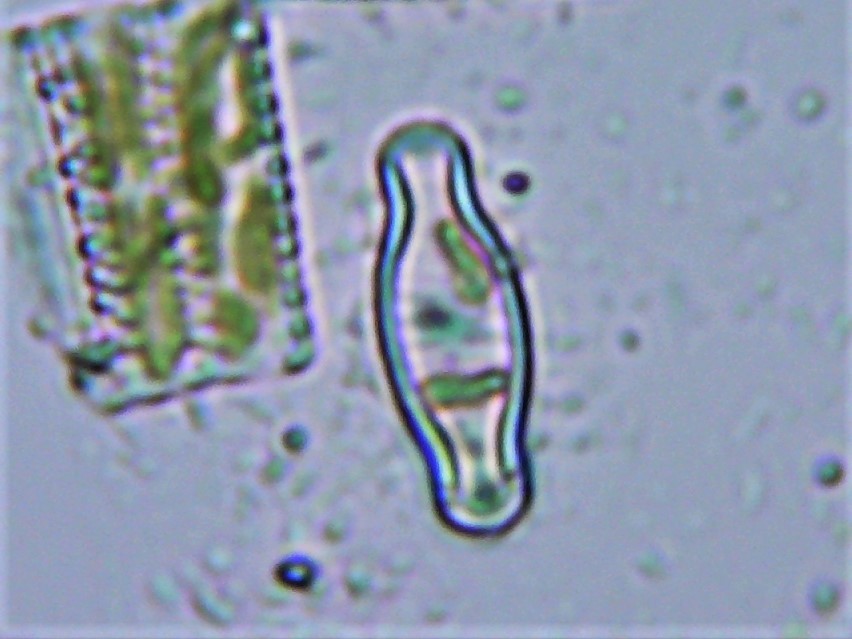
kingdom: Chromista
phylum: Ochrophyta
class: Bacillariophyceae
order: Naviculales
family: Naviculaceae
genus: Hippodonta
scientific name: Hippodonta capitata
